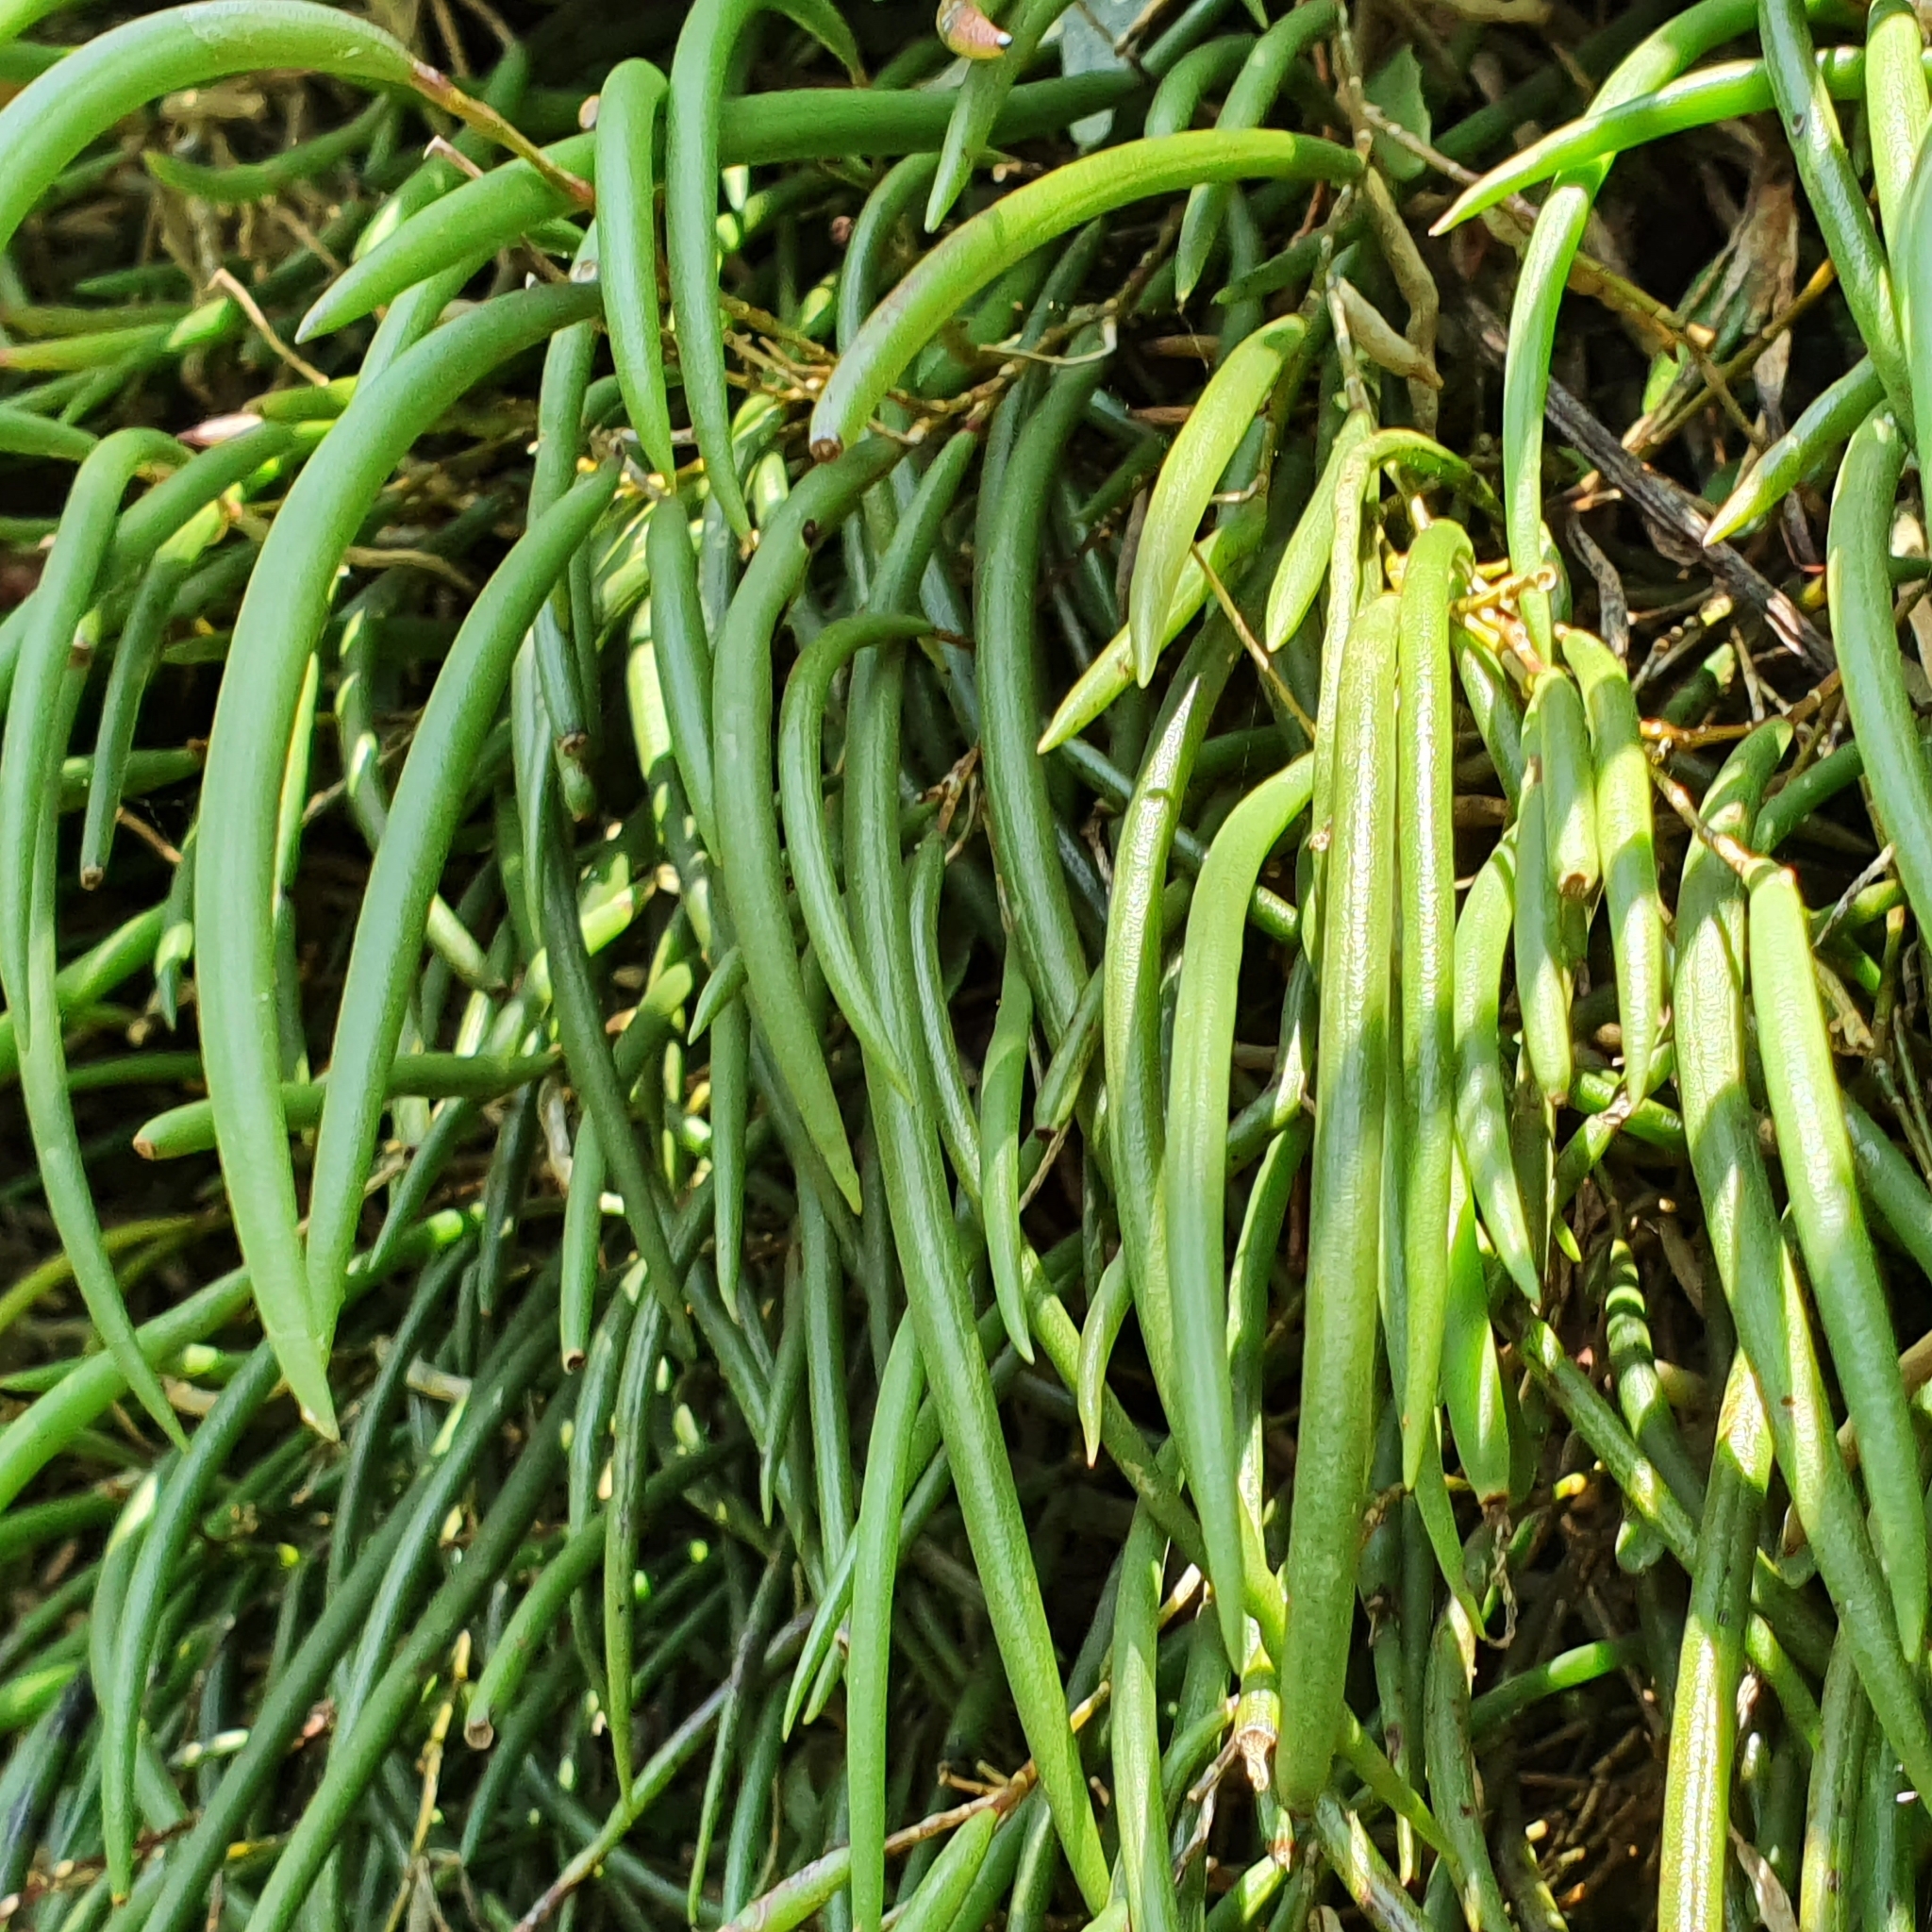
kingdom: Plantae
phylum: Tracheophyta
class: Liliopsida
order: Asparagales
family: Orchidaceae
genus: Dendrobium
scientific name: Dendrobium striolatum
